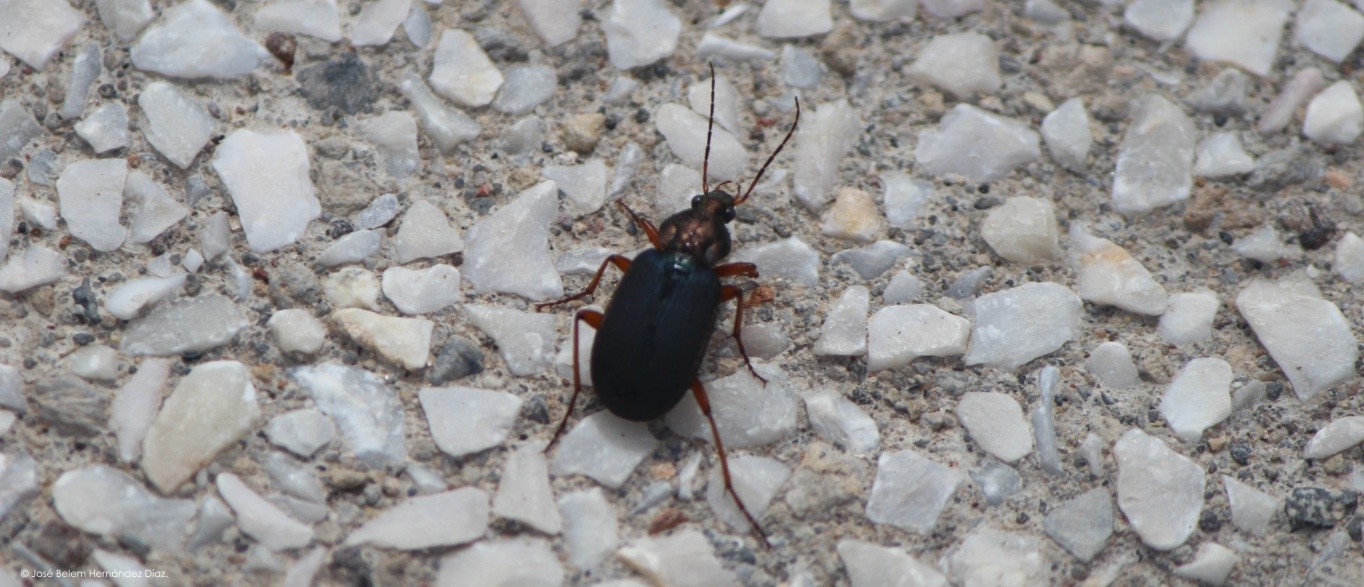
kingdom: Animalia
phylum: Arthropoda
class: Insecta
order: Coleoptera
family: Carabidae
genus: Chlaenius
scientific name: Chlaenius tricolor
